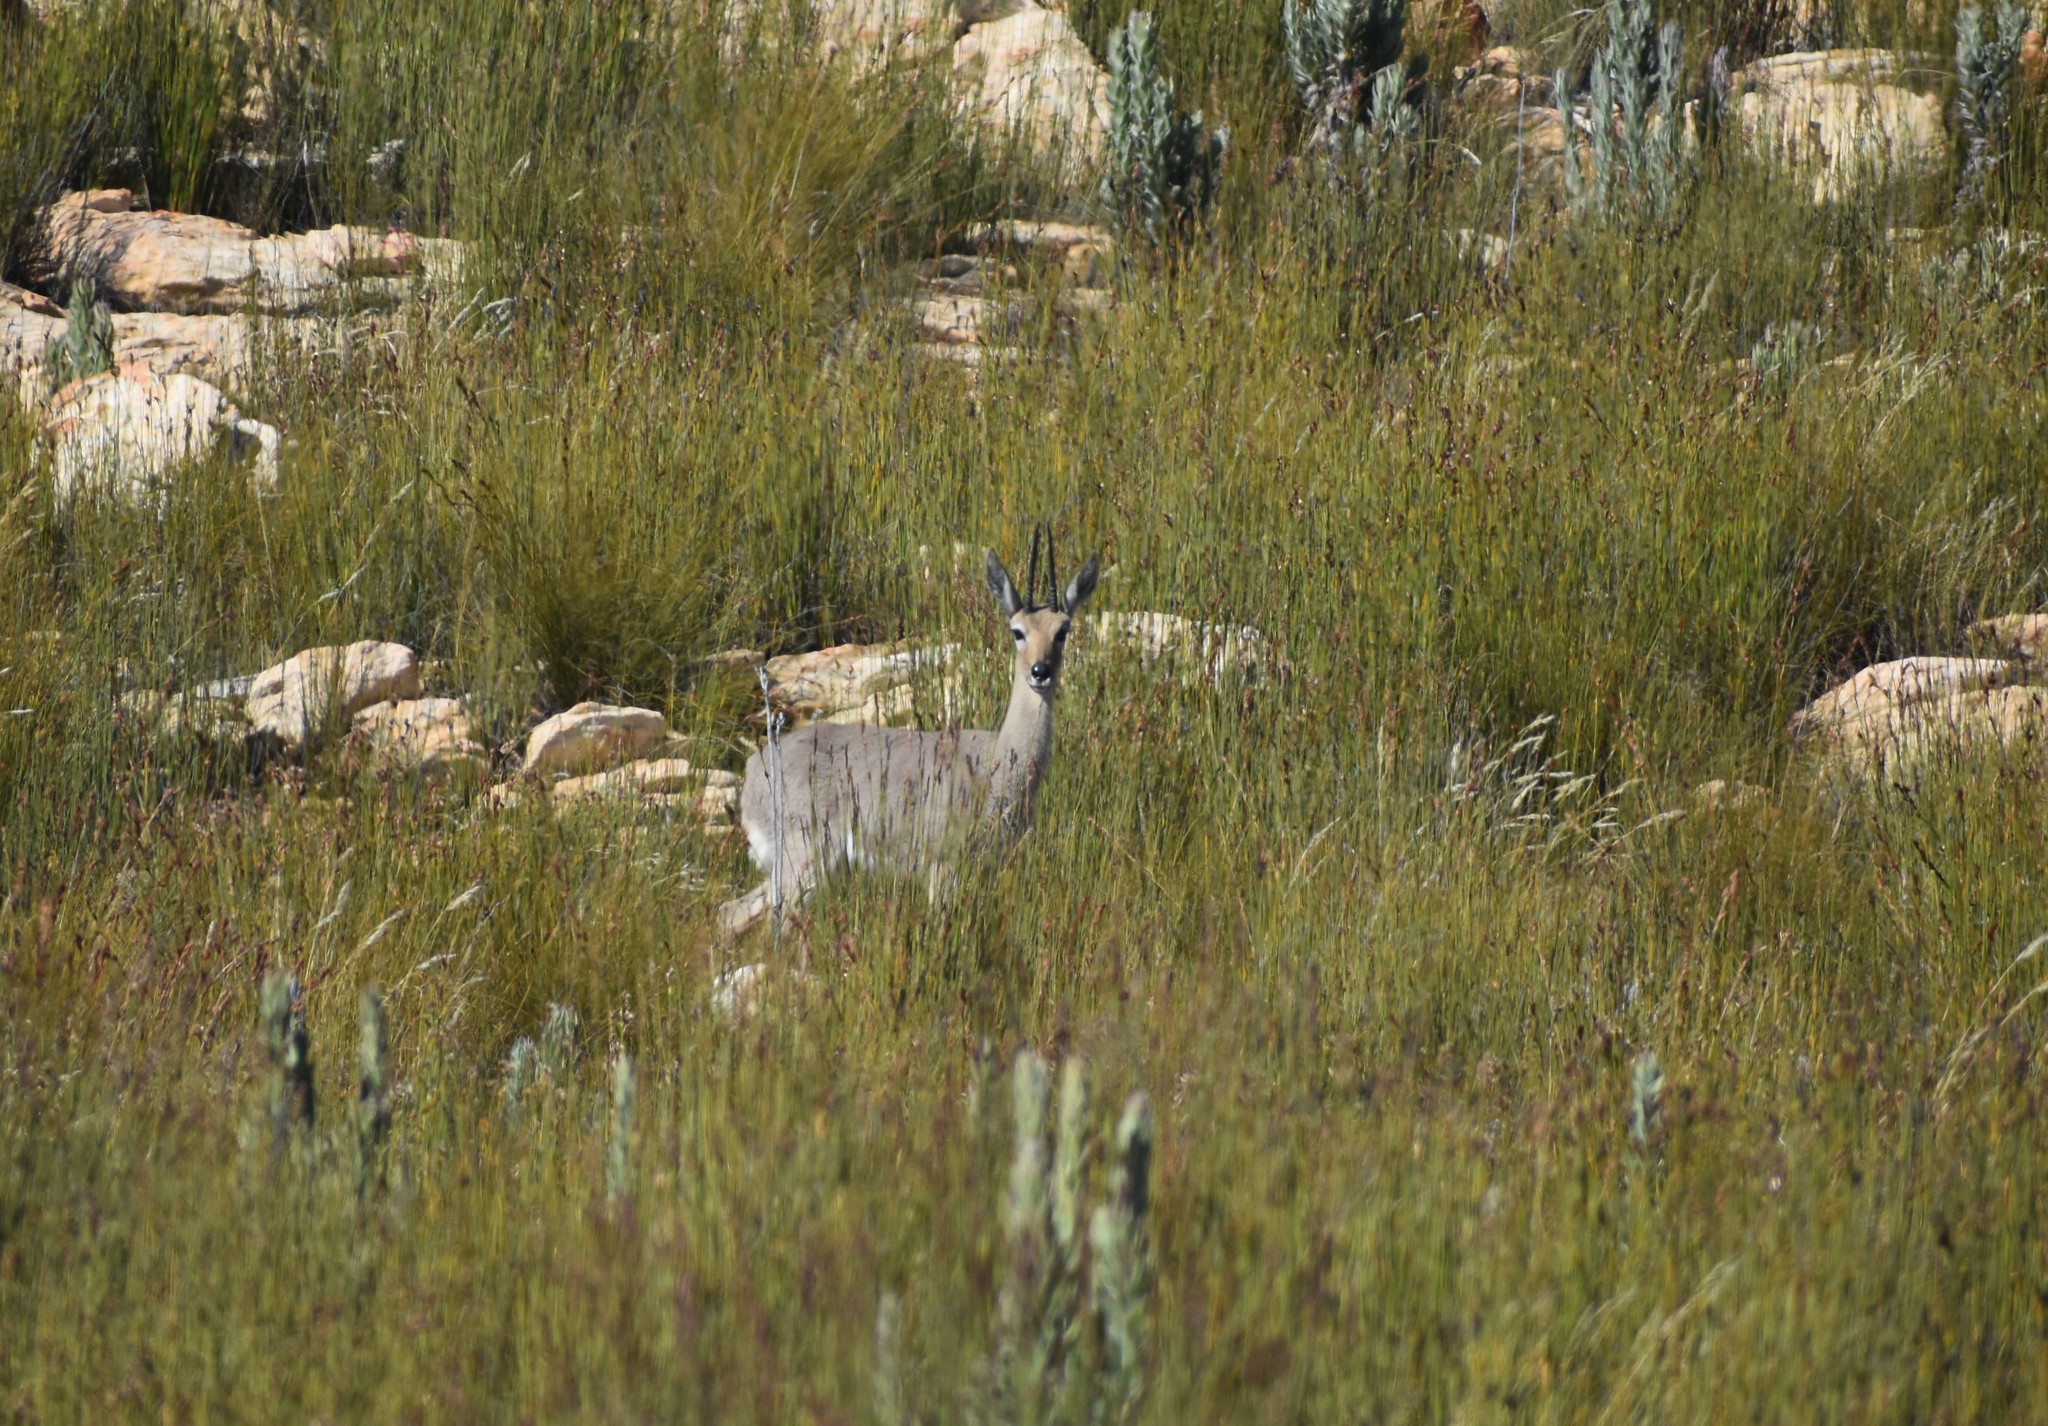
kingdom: Animalia
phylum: Chordata
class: Mammalia
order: Artiodactyla
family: Bovidae
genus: Pelea
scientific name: Pelea capreolus
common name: Common rhebok
